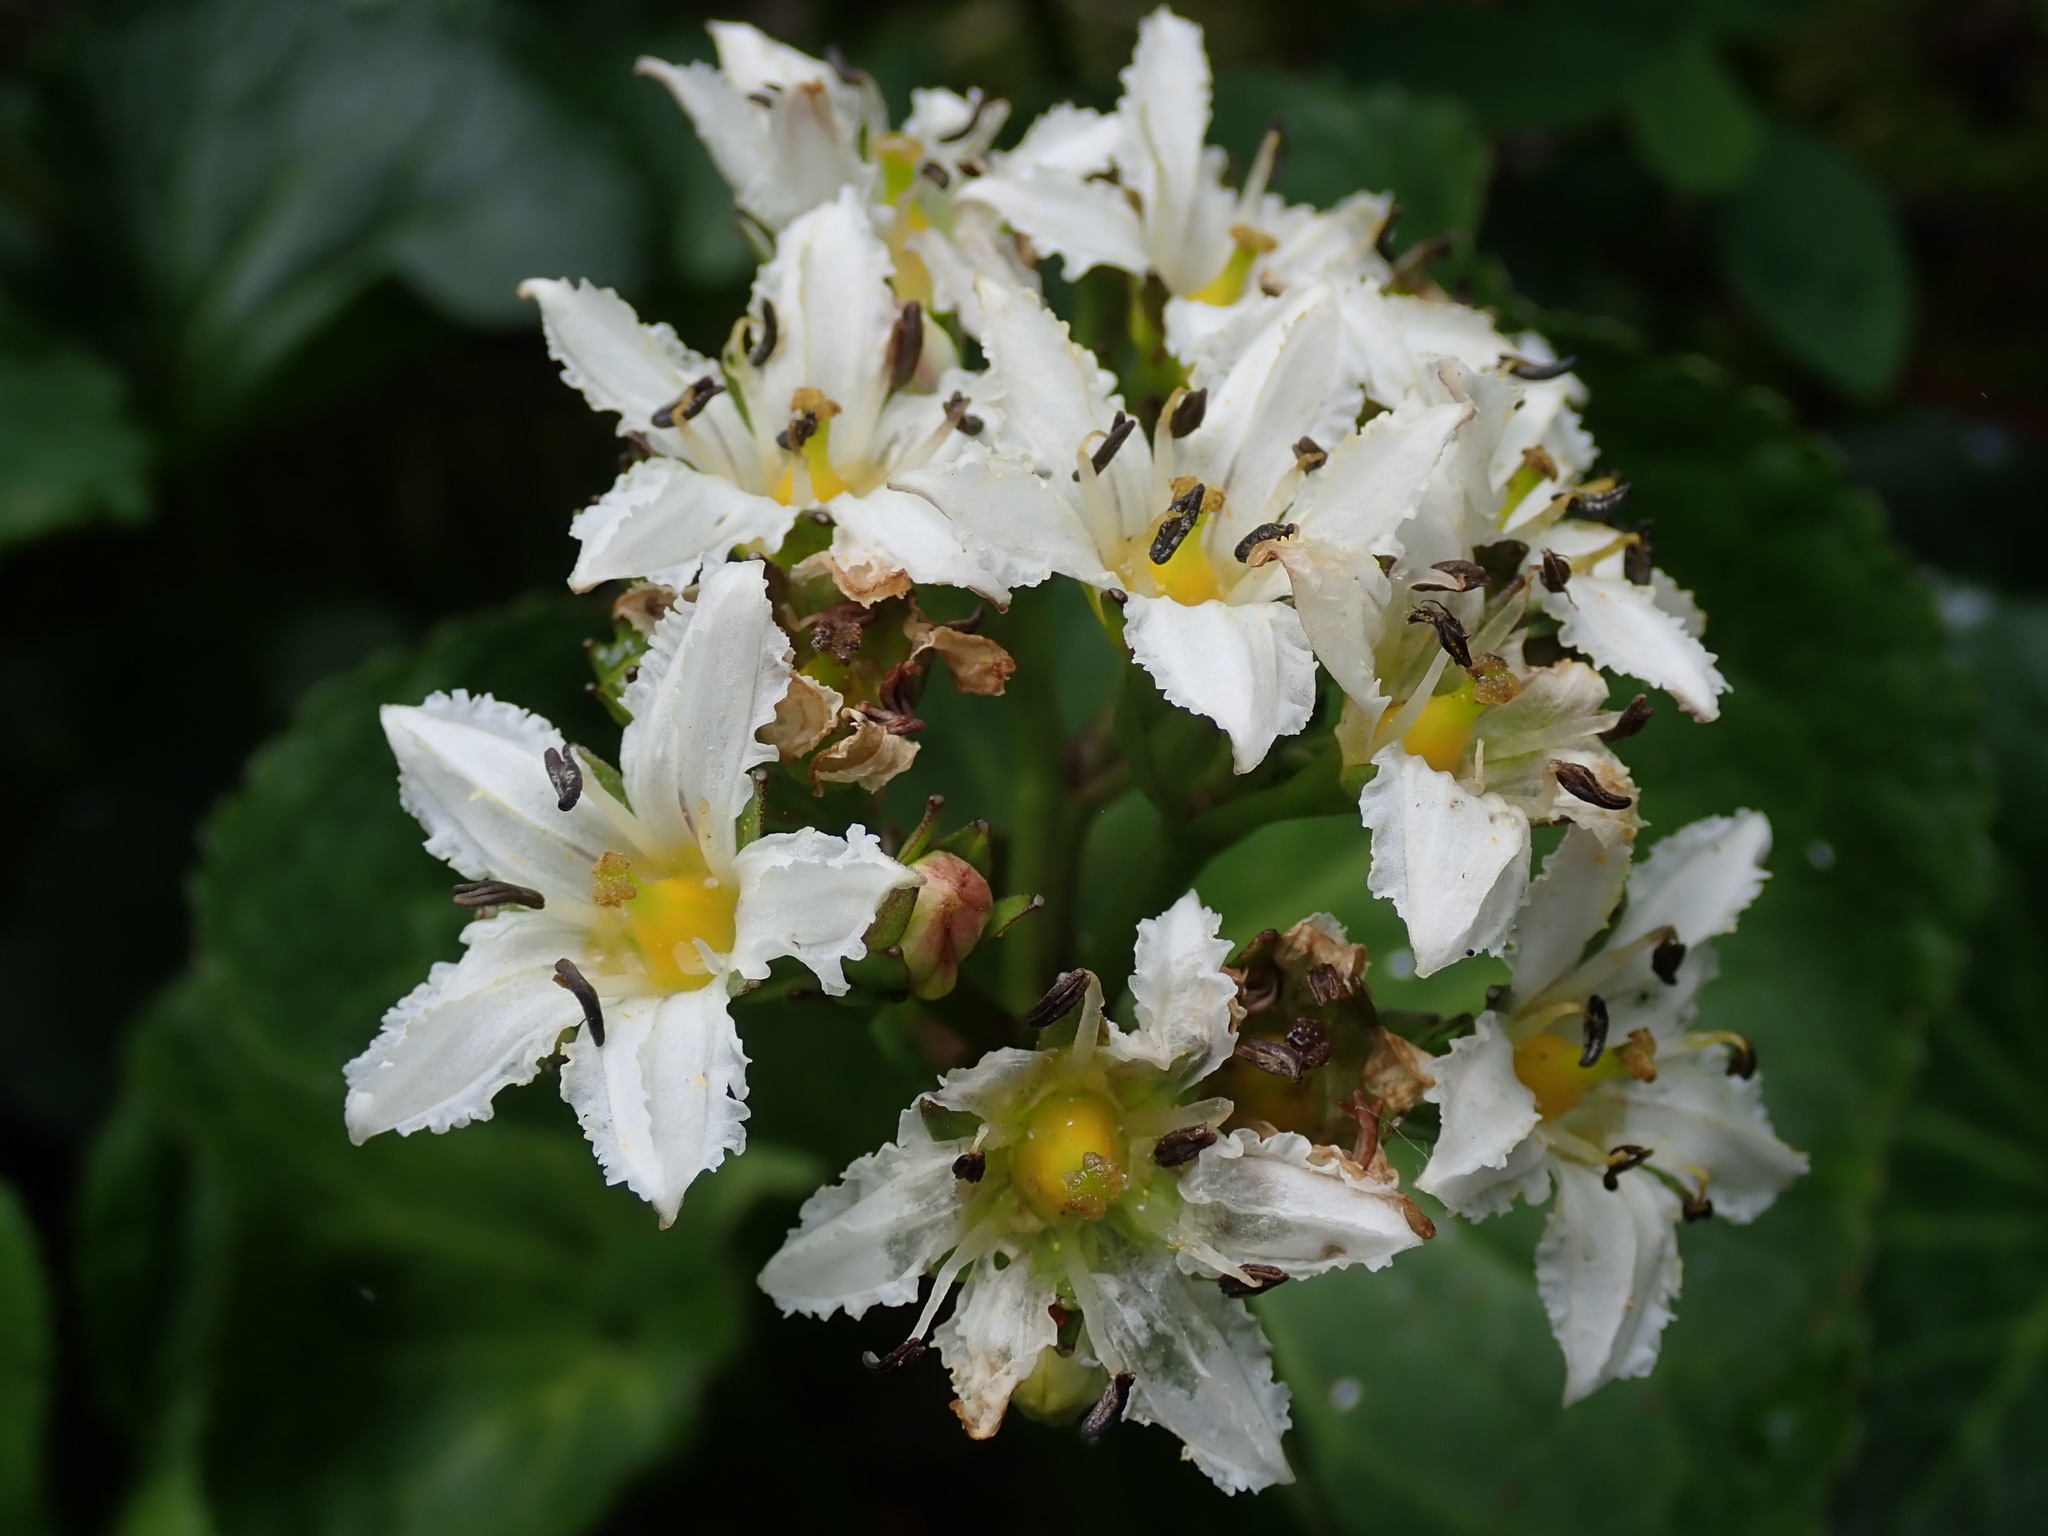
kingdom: Plantae
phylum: Tracheophyta
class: Magnoliopsida
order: Asterales
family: Menyanthaceae
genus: Nephrophyllidium
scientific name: Nephrophyllidium crista-galli
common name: Deer-cabbage
